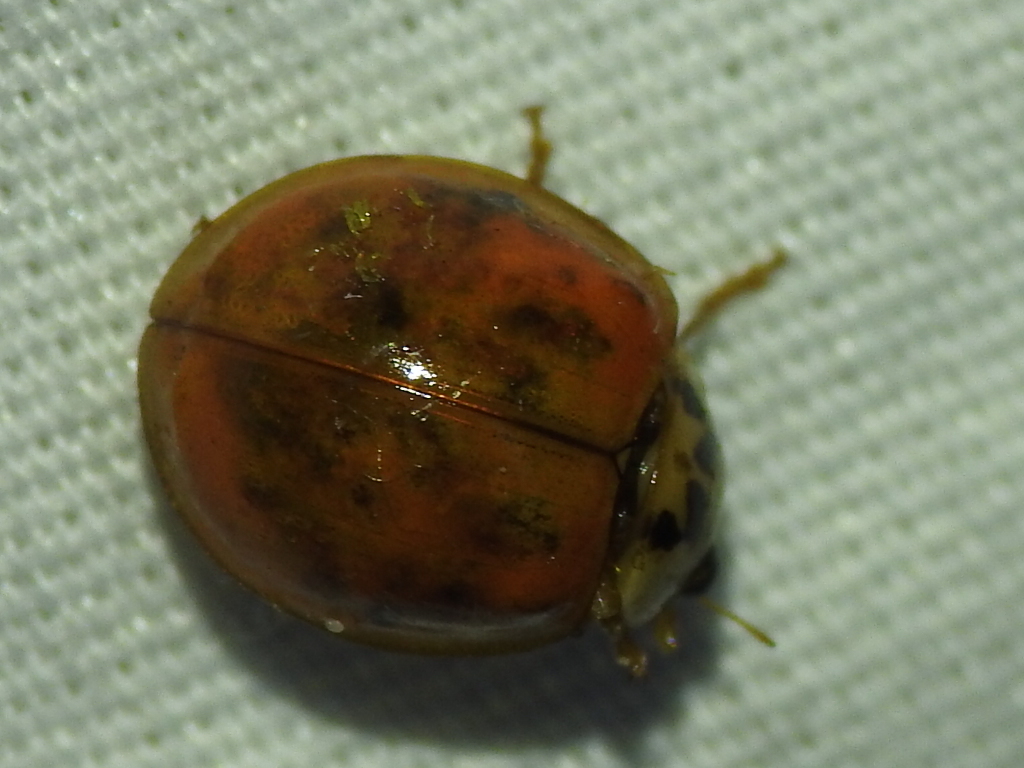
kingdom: Animalia
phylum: Arthropoda
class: Insecta
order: Coleoptera
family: Coccinellidae
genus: Harmonia
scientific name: Harmonia axyridis
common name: Harlequin ladybird
